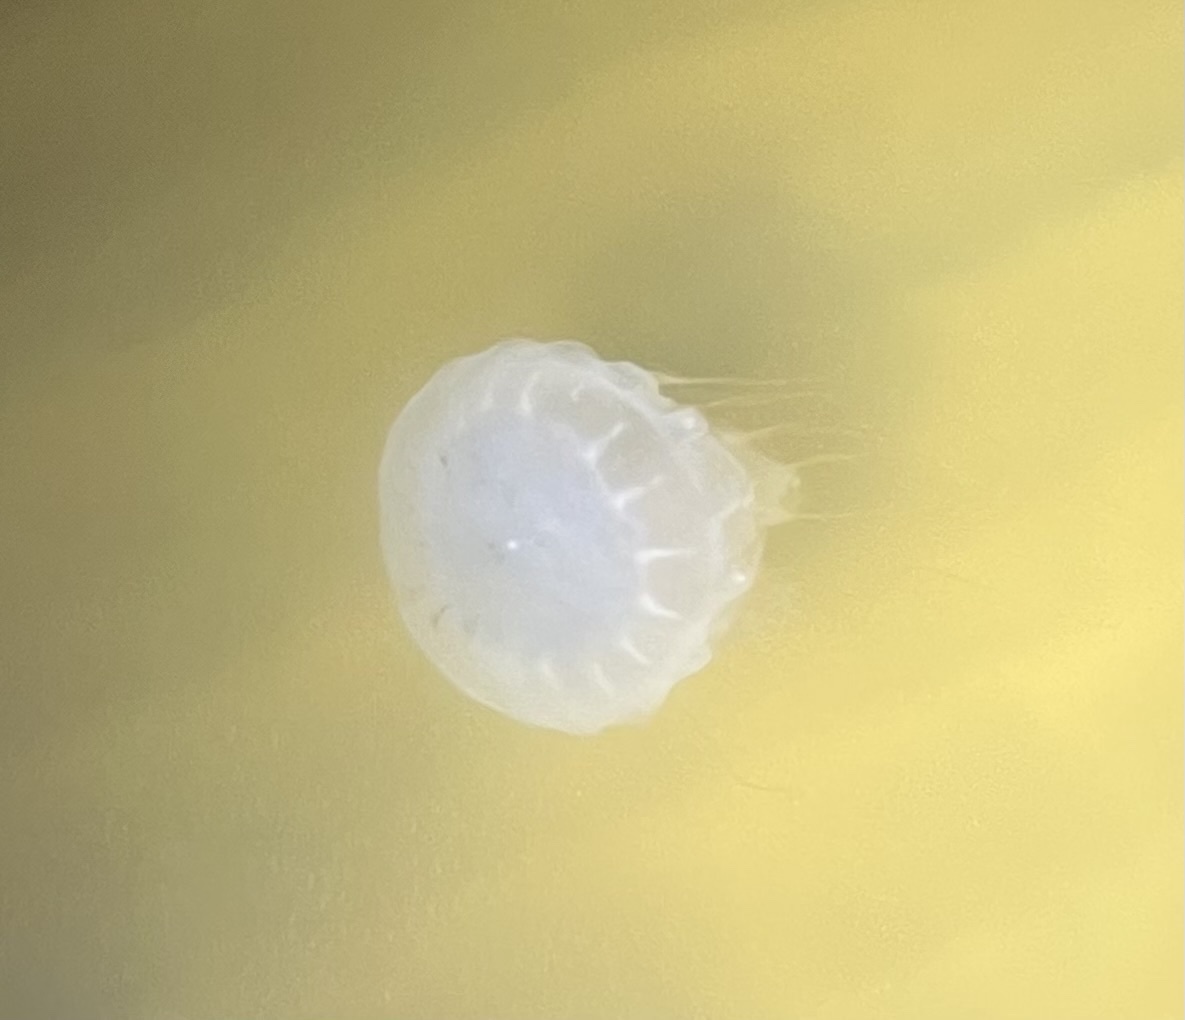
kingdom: Animalia
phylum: Cnidaria
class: Scyphozoa
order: Semaeostomeae
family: Pelagiidae
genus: Chrysaora
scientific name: Chrysaora chesapeakei
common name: Bay nettle
